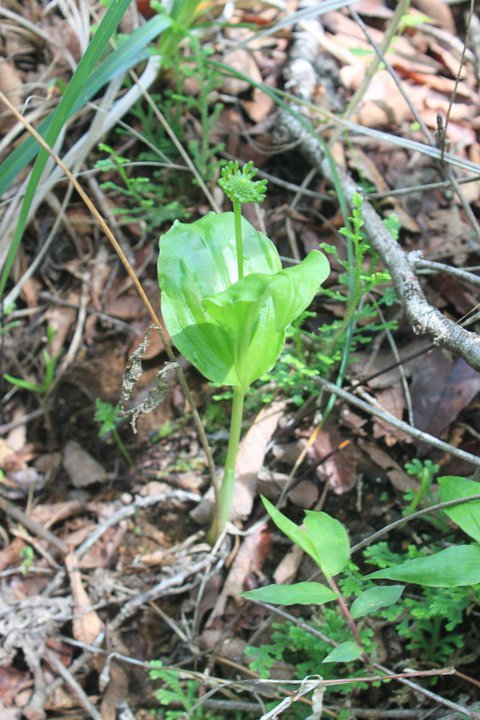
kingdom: Plantae
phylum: Tracheophyta
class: Liliopsida
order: Asparagales
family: Orchidaceae
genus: Malaxis
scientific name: Malaxis brachyrrhynchos
